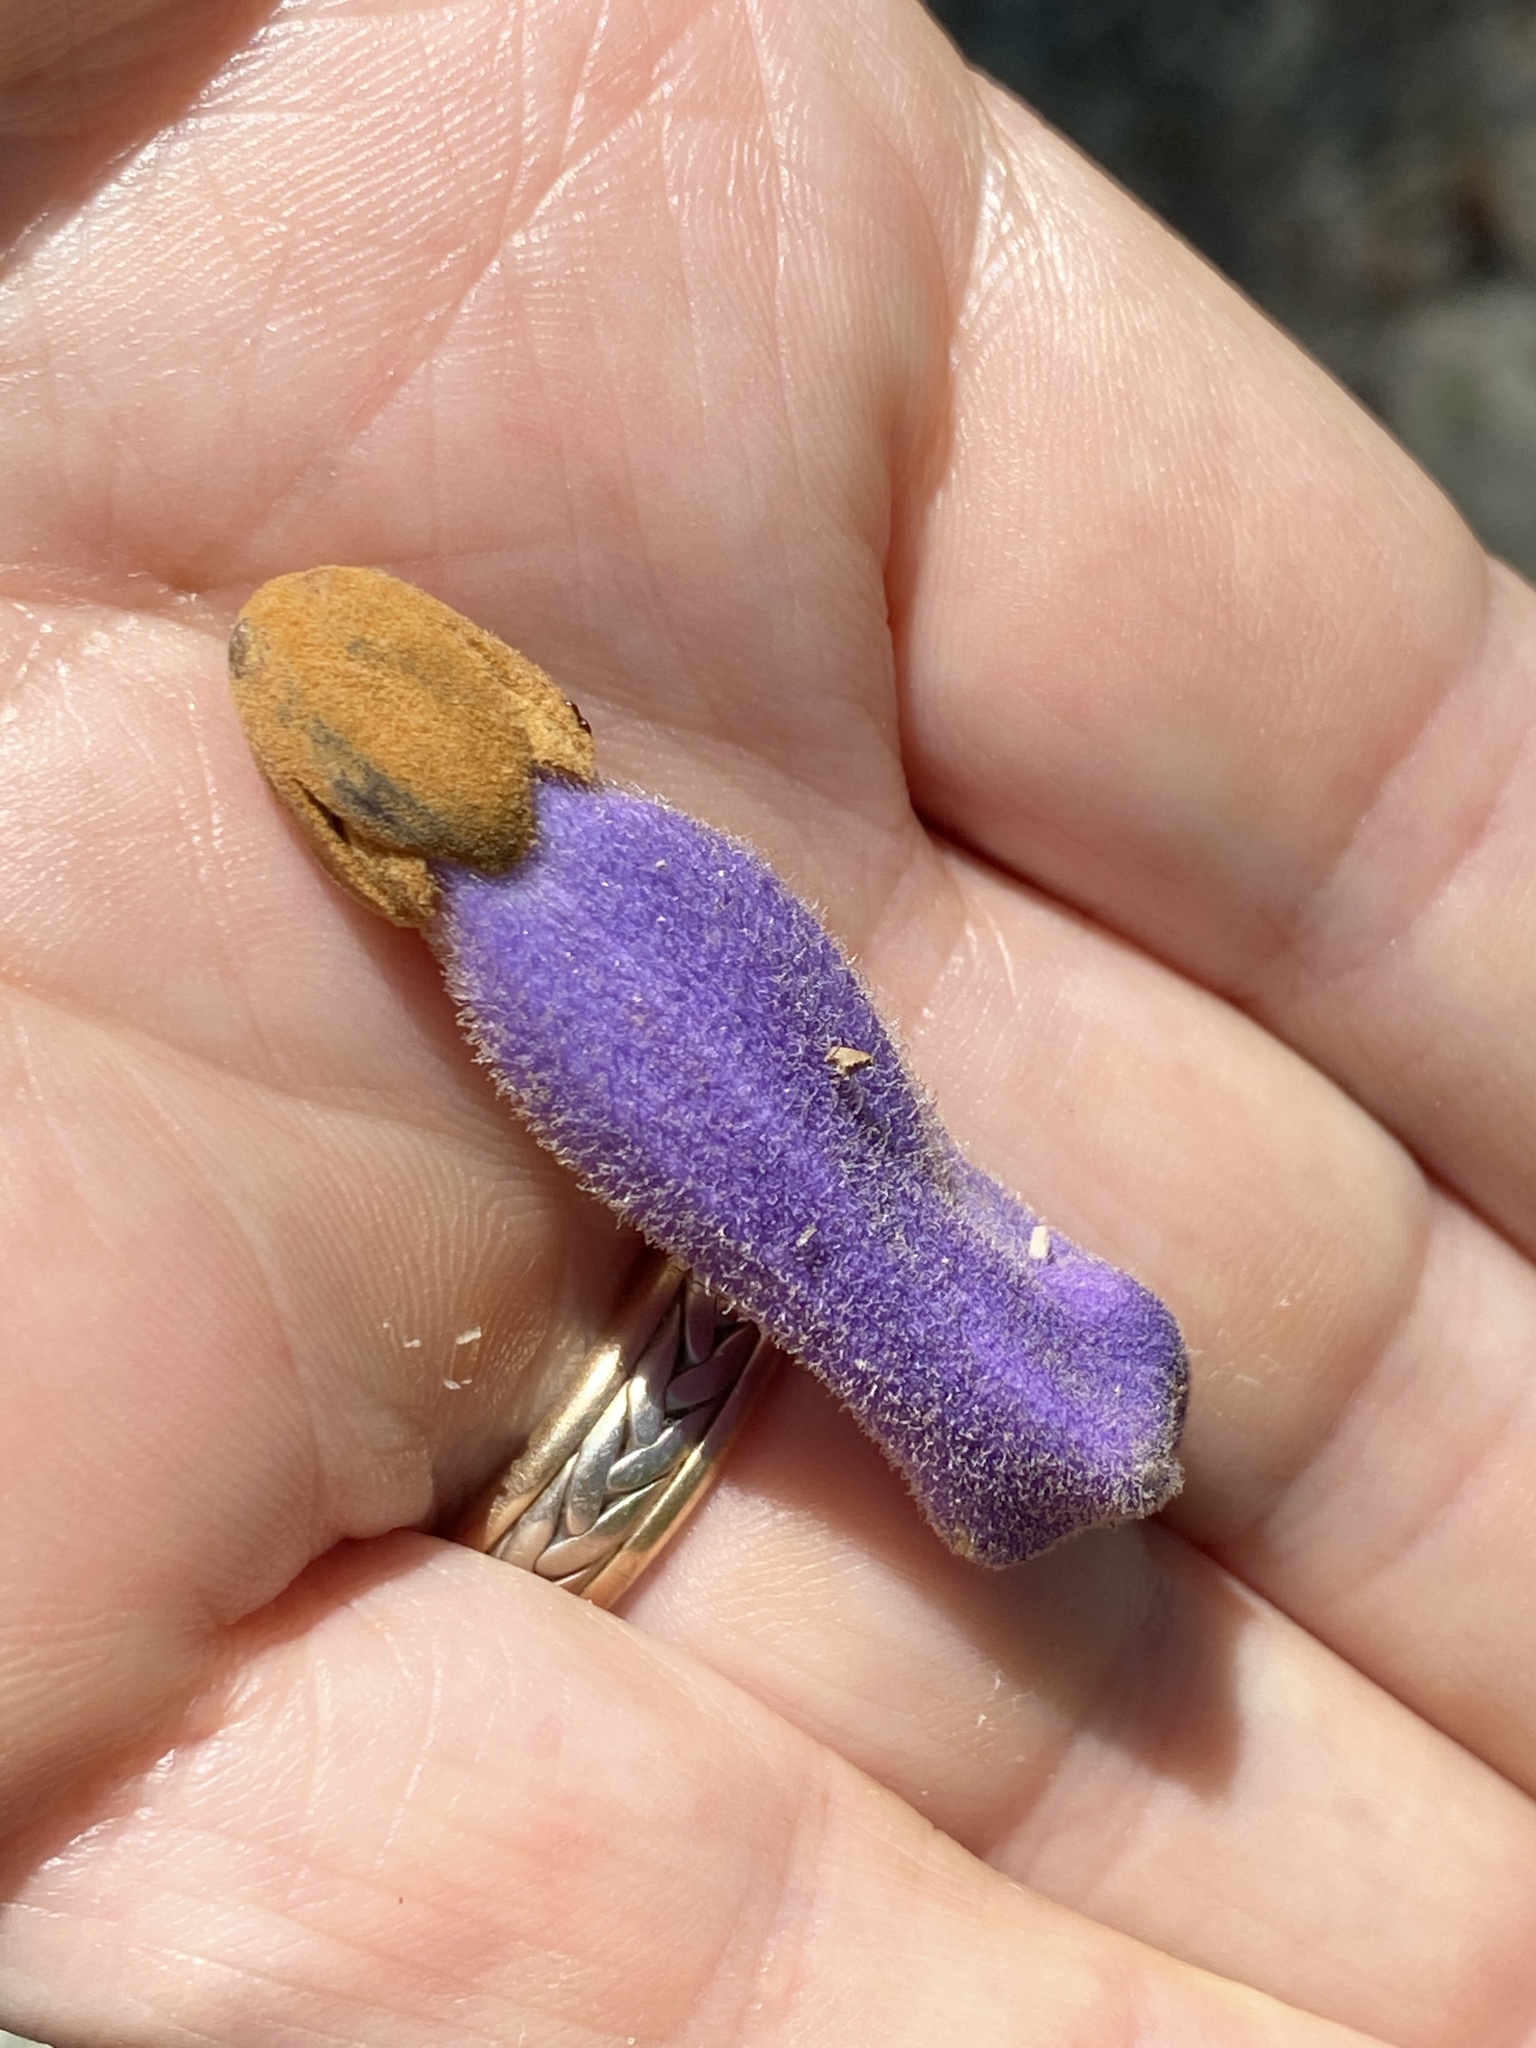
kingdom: Plantae
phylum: Tracheophyta
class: Magnoliopsida
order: Lamiales
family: Paulowniaceae
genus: Paulownia
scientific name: Paulownia tomentosa
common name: Foxglove-tree
